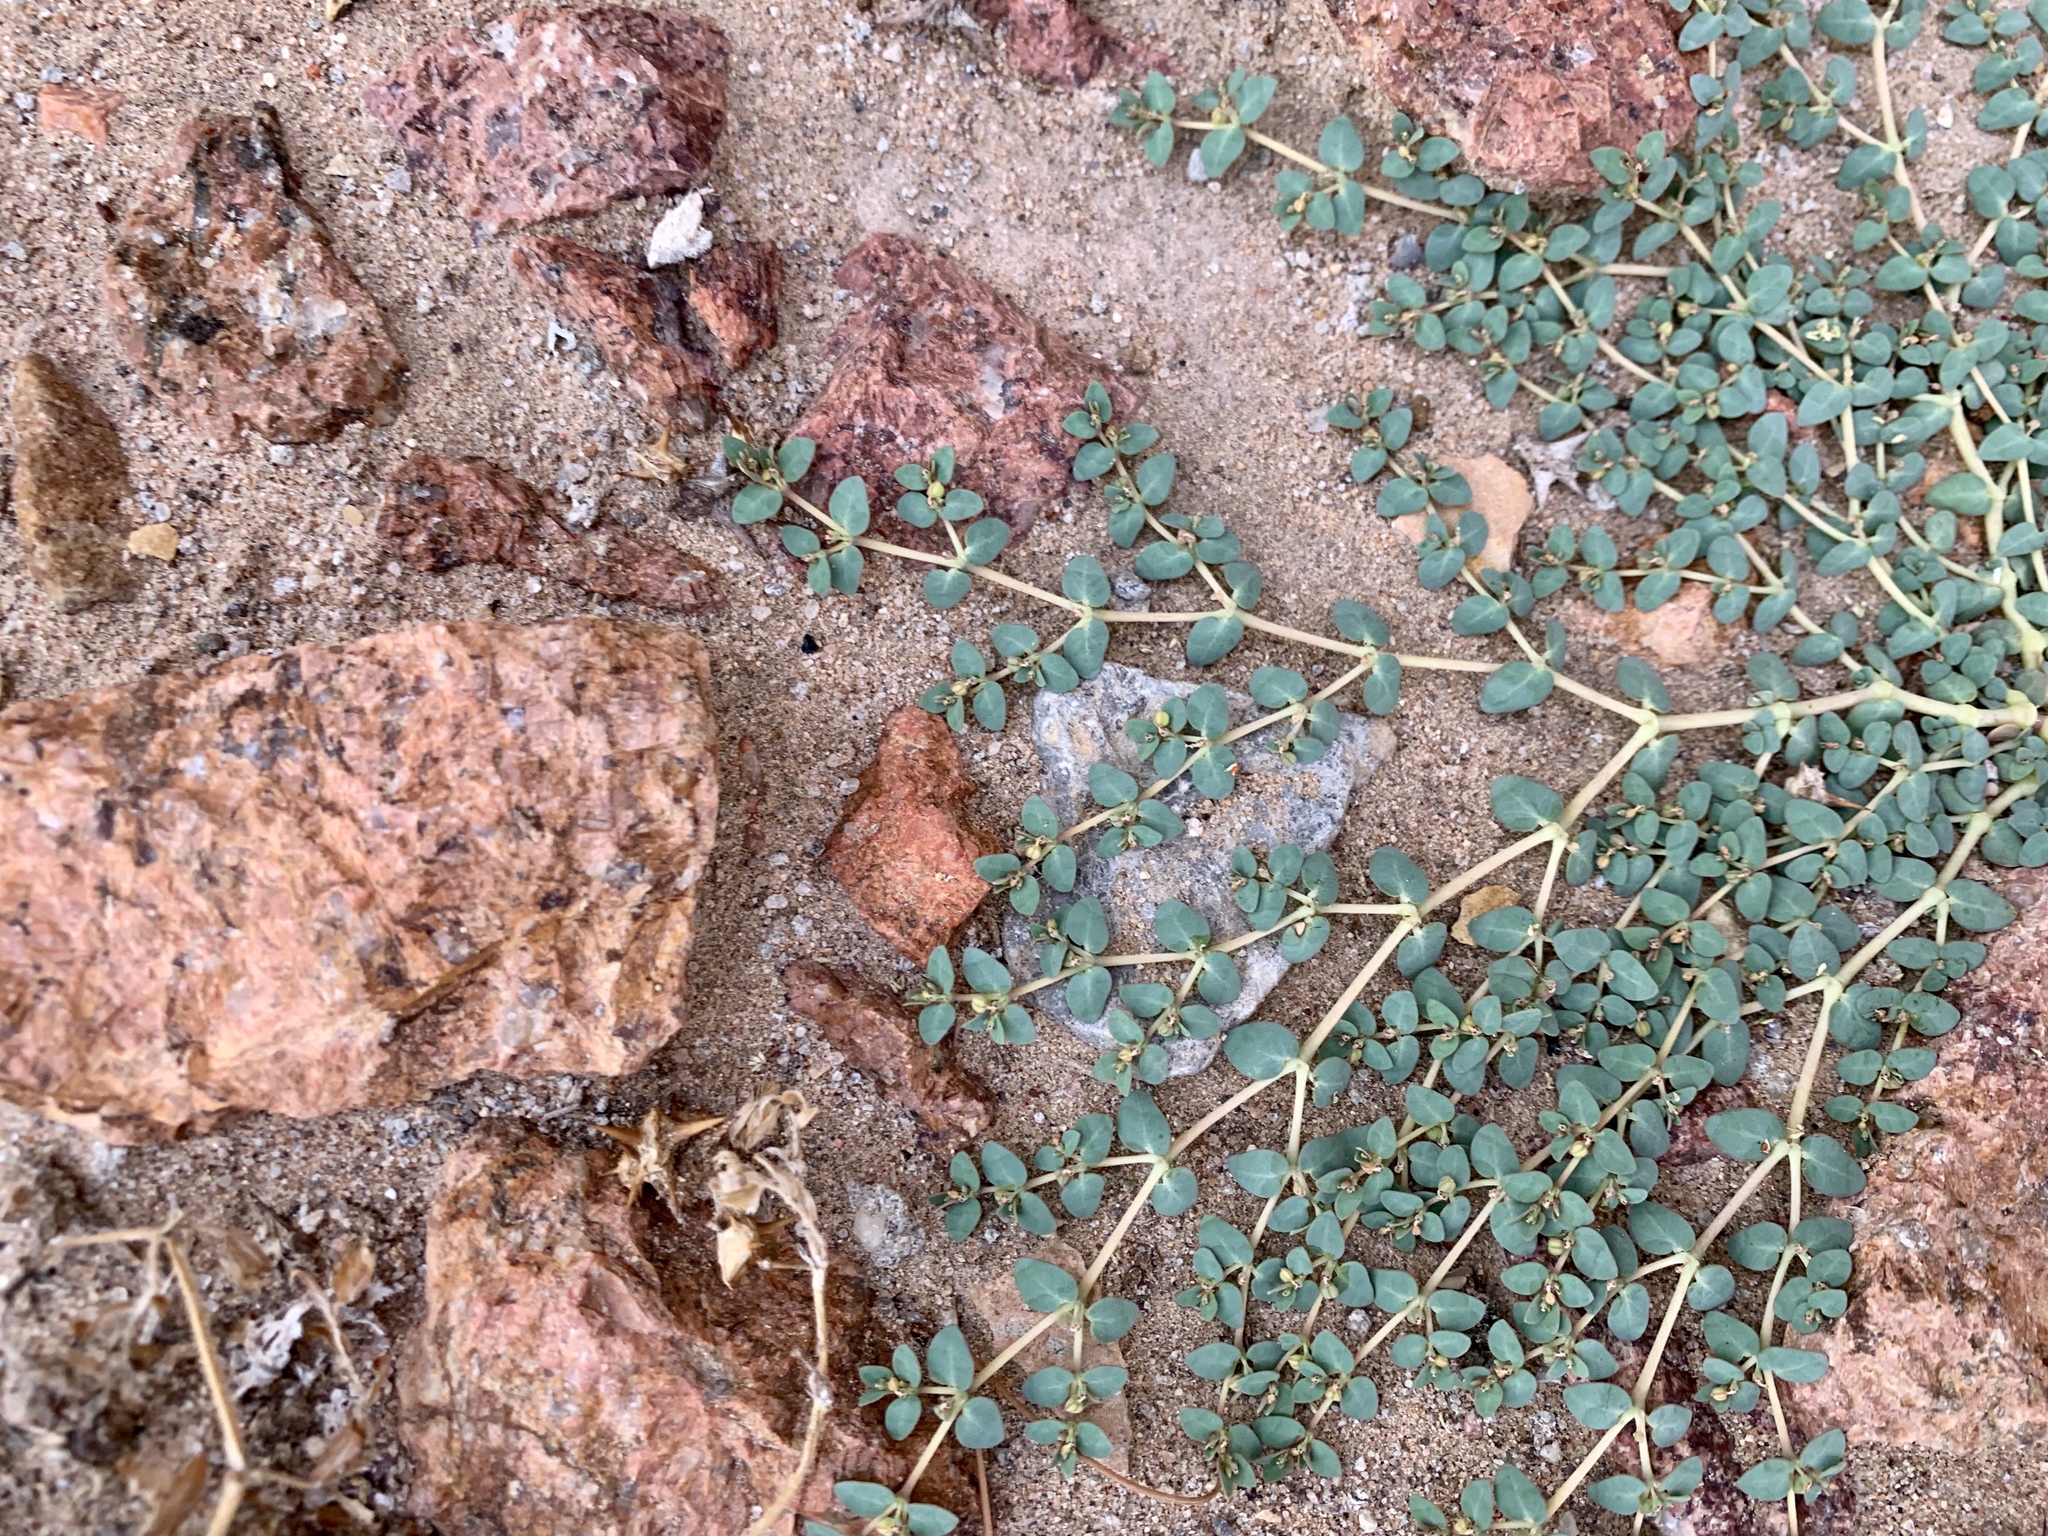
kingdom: Plantae
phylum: Tracheophyta
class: Magnoliopsida
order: Malpighiales
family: Euphorbiaceae
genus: Euphorbia
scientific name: Euphorbia micromera
